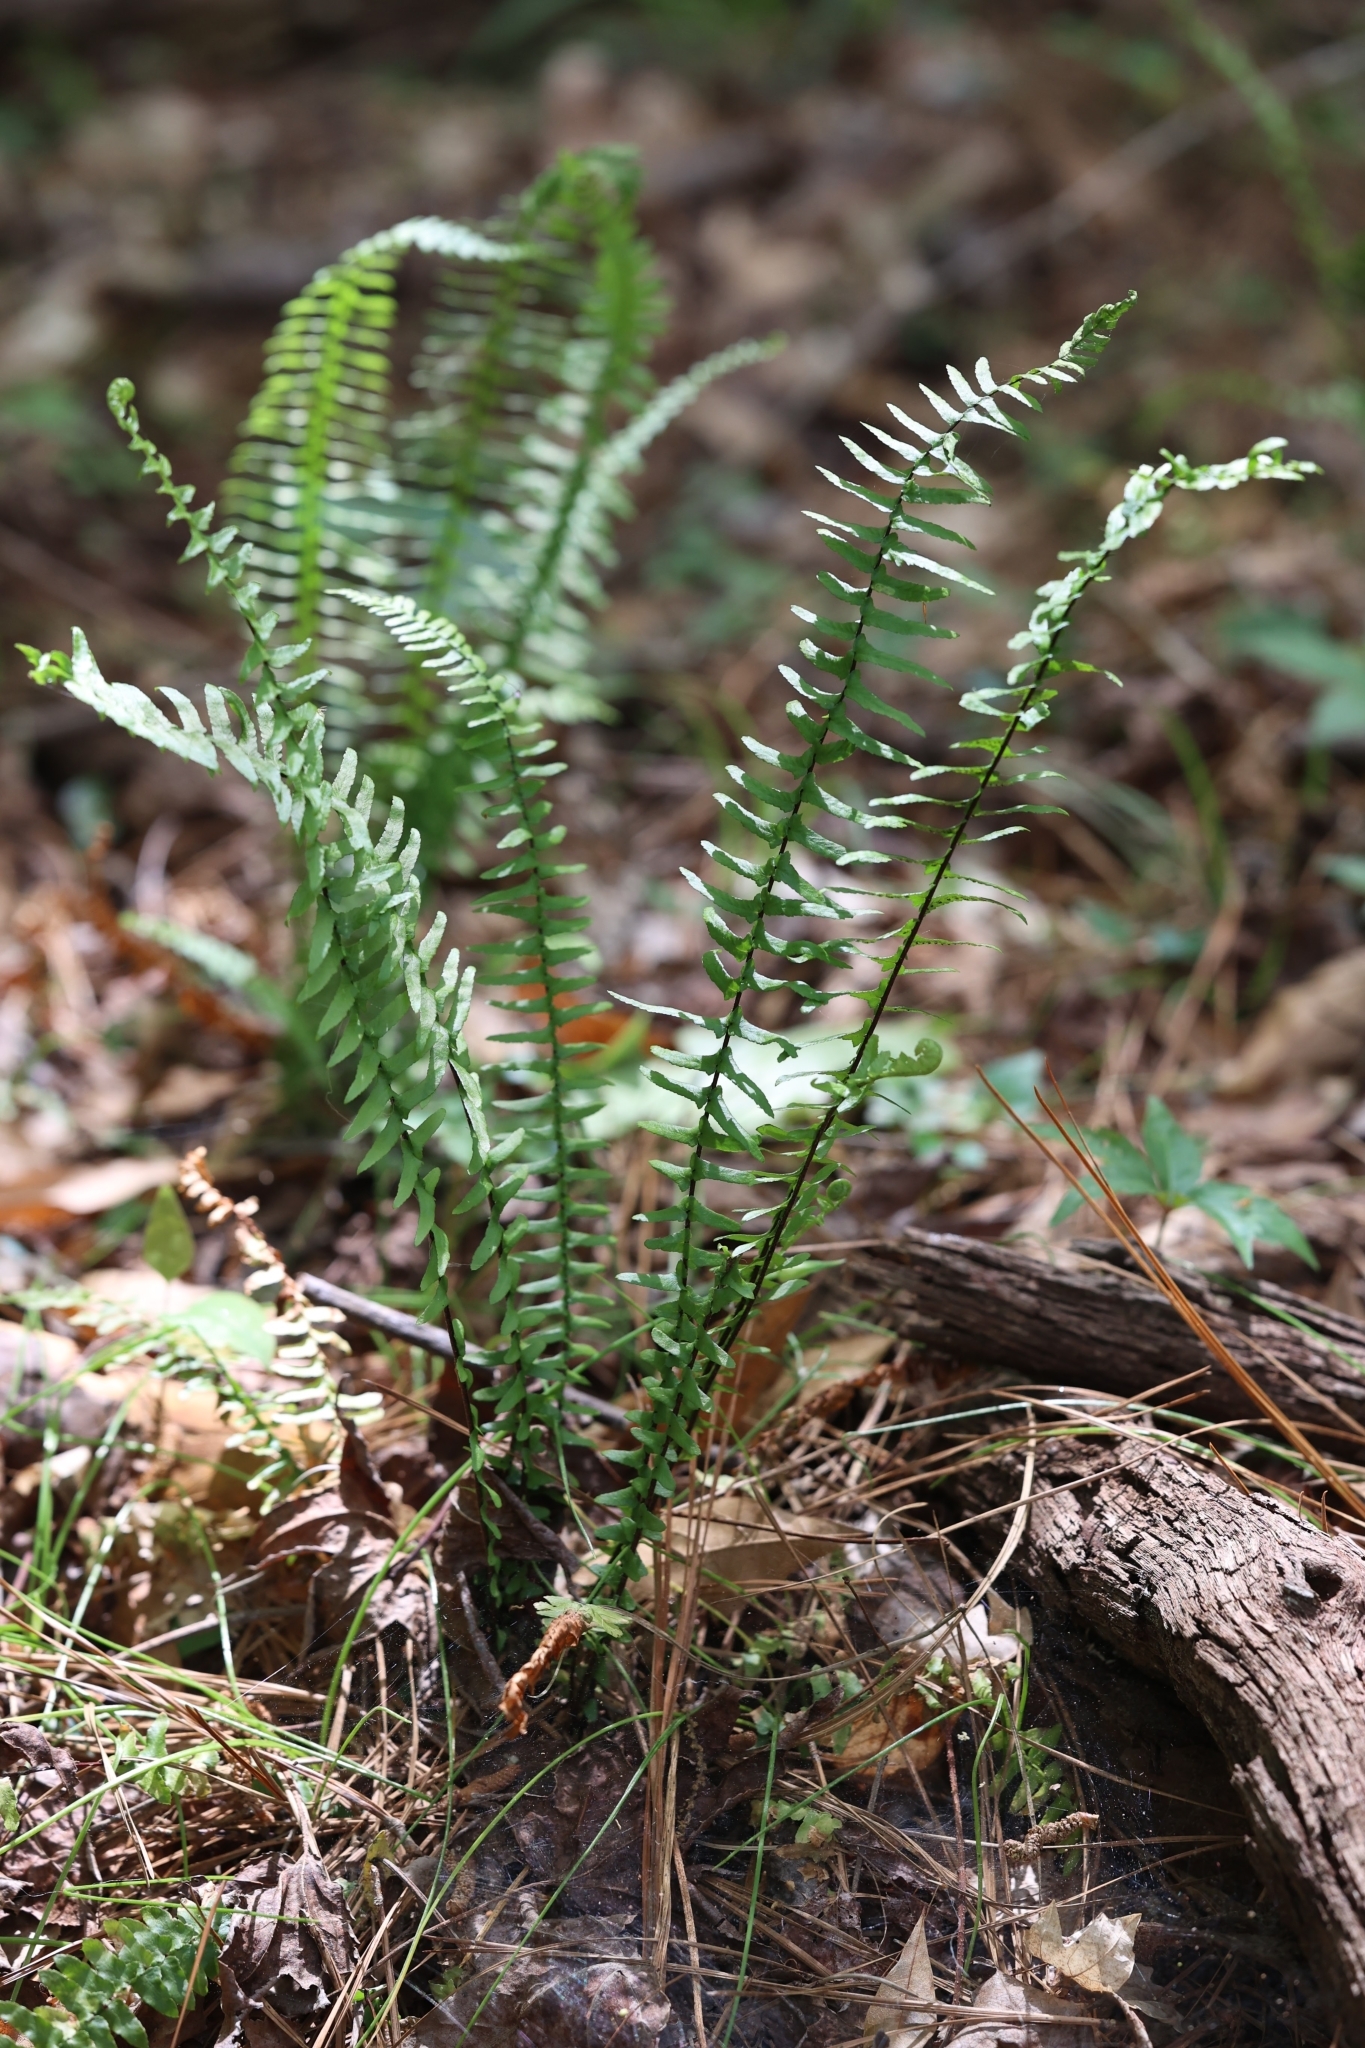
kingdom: Plantae
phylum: Tracheophyta
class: Polypodiopsida
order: Polypodiales
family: Aspleniaceae
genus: Asplenium
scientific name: Asplenium platyneuron
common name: Ebony spleenwort
